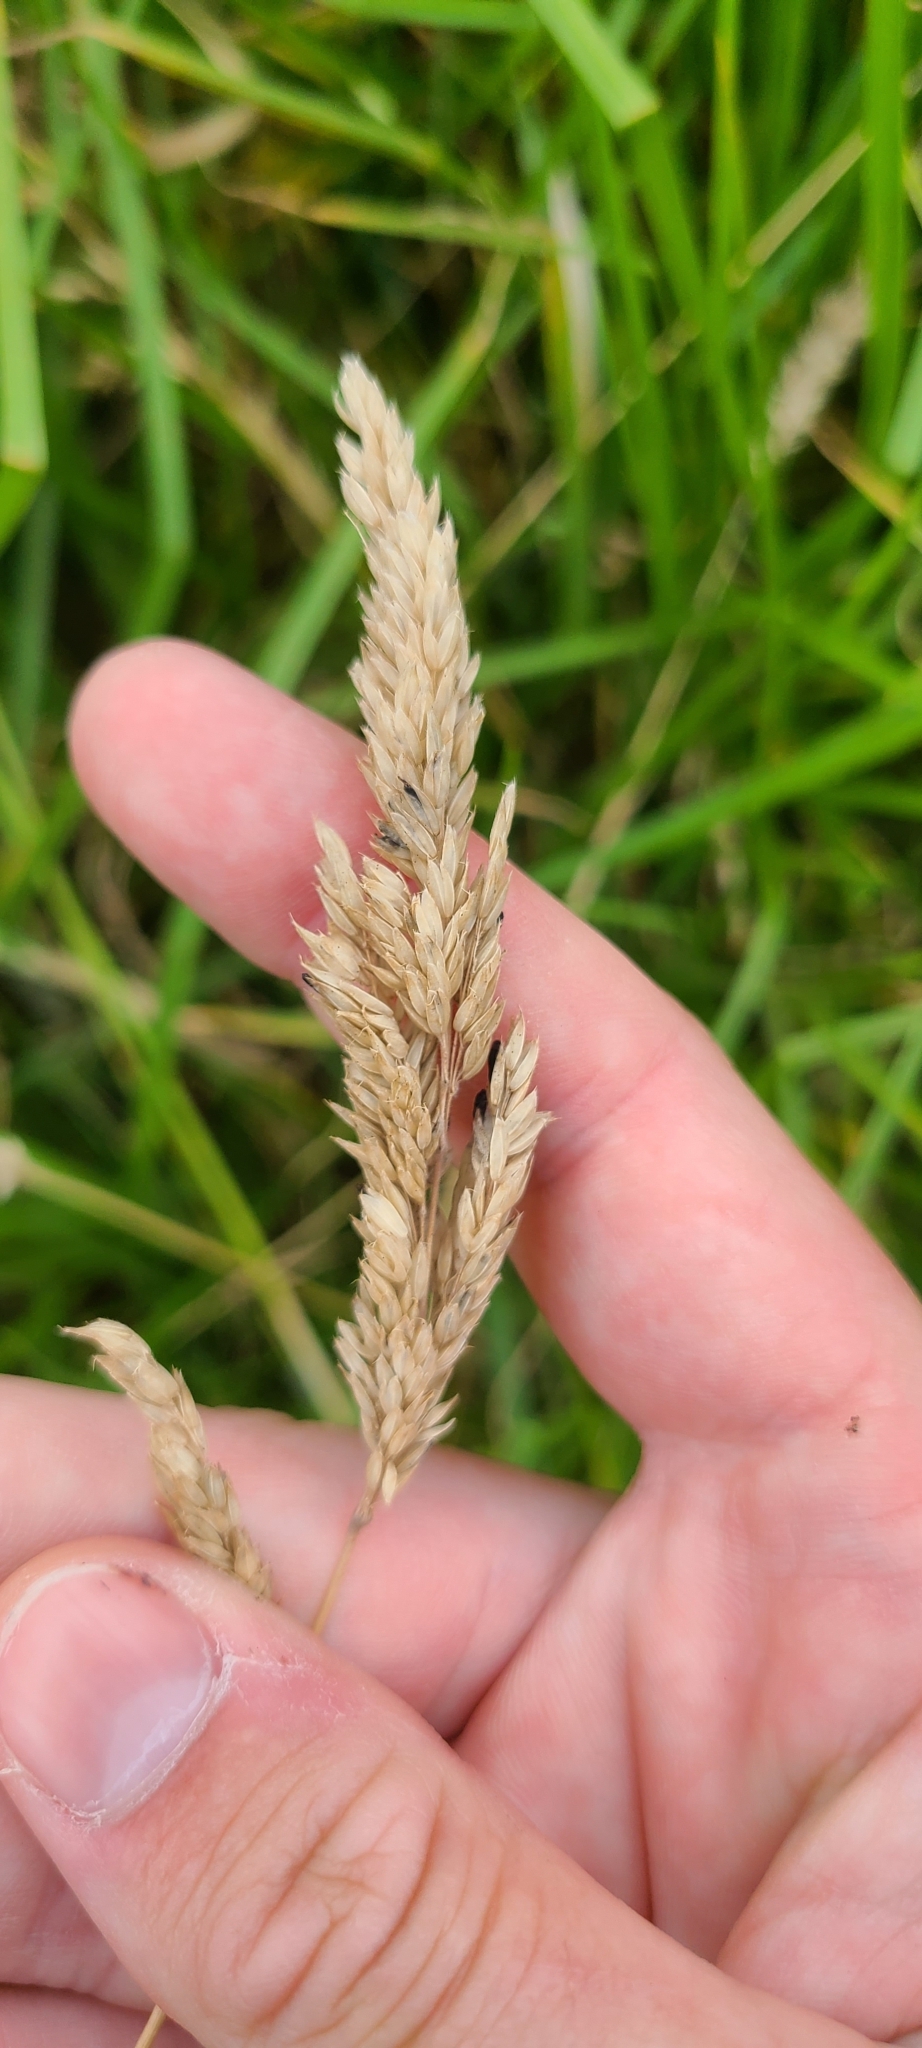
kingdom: Plantae
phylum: Tracheophyta
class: Liliopsida
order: Poales
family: Poaceae
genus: Holcus
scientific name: Holcus lanatus
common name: Yorkshire-fog
